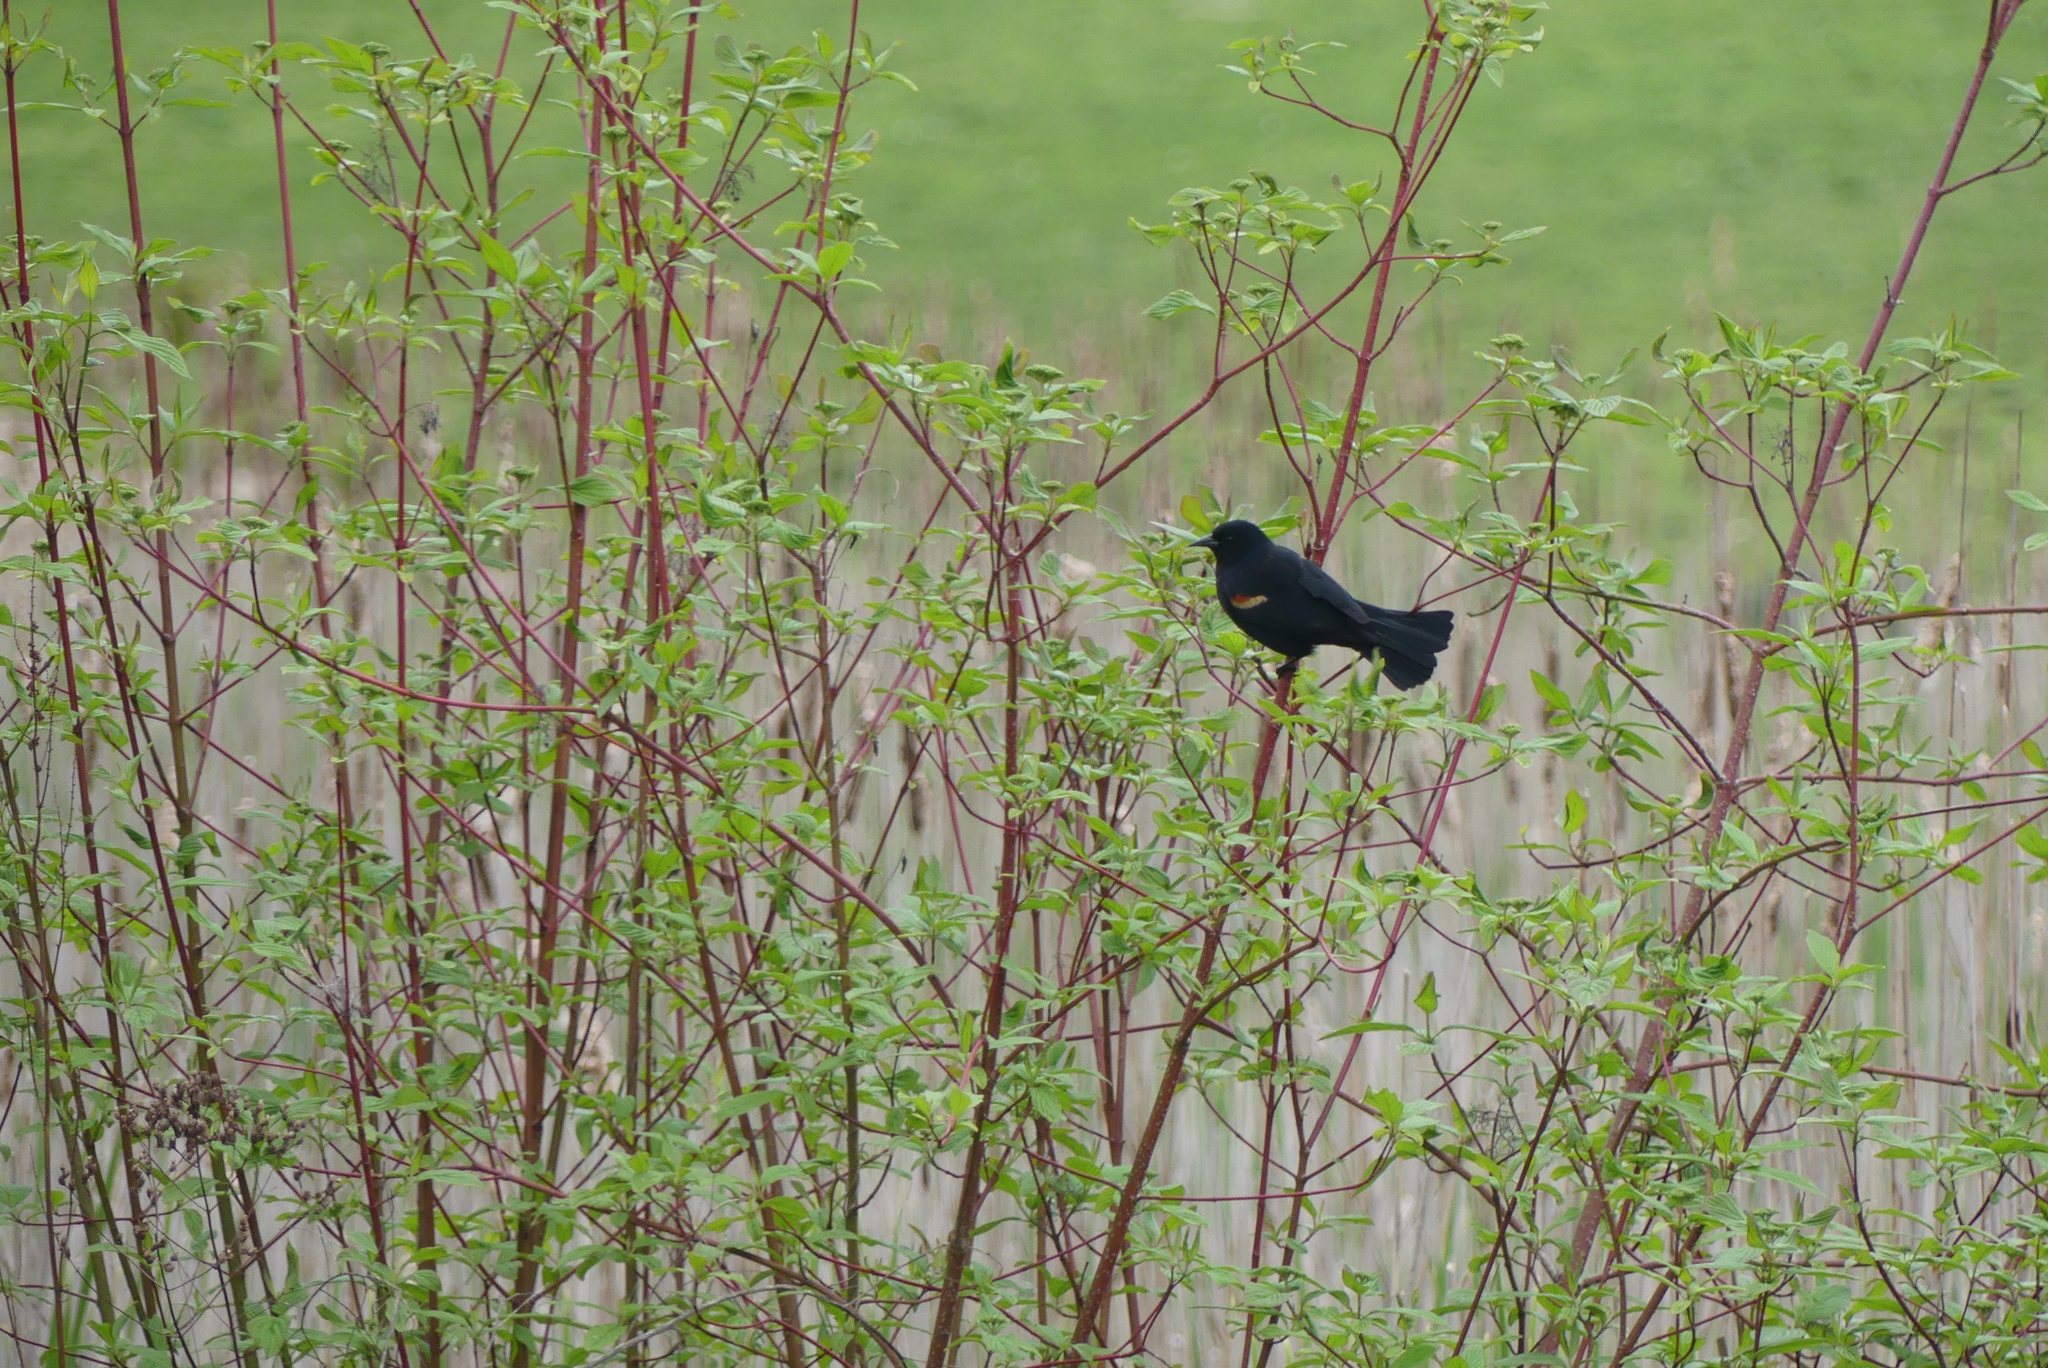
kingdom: Animalia
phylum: Chordata
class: Aves
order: Passeriformes
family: Icteridae
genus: Agelaius
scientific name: Agelaius phoeniceus
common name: Red-winged blackbird
